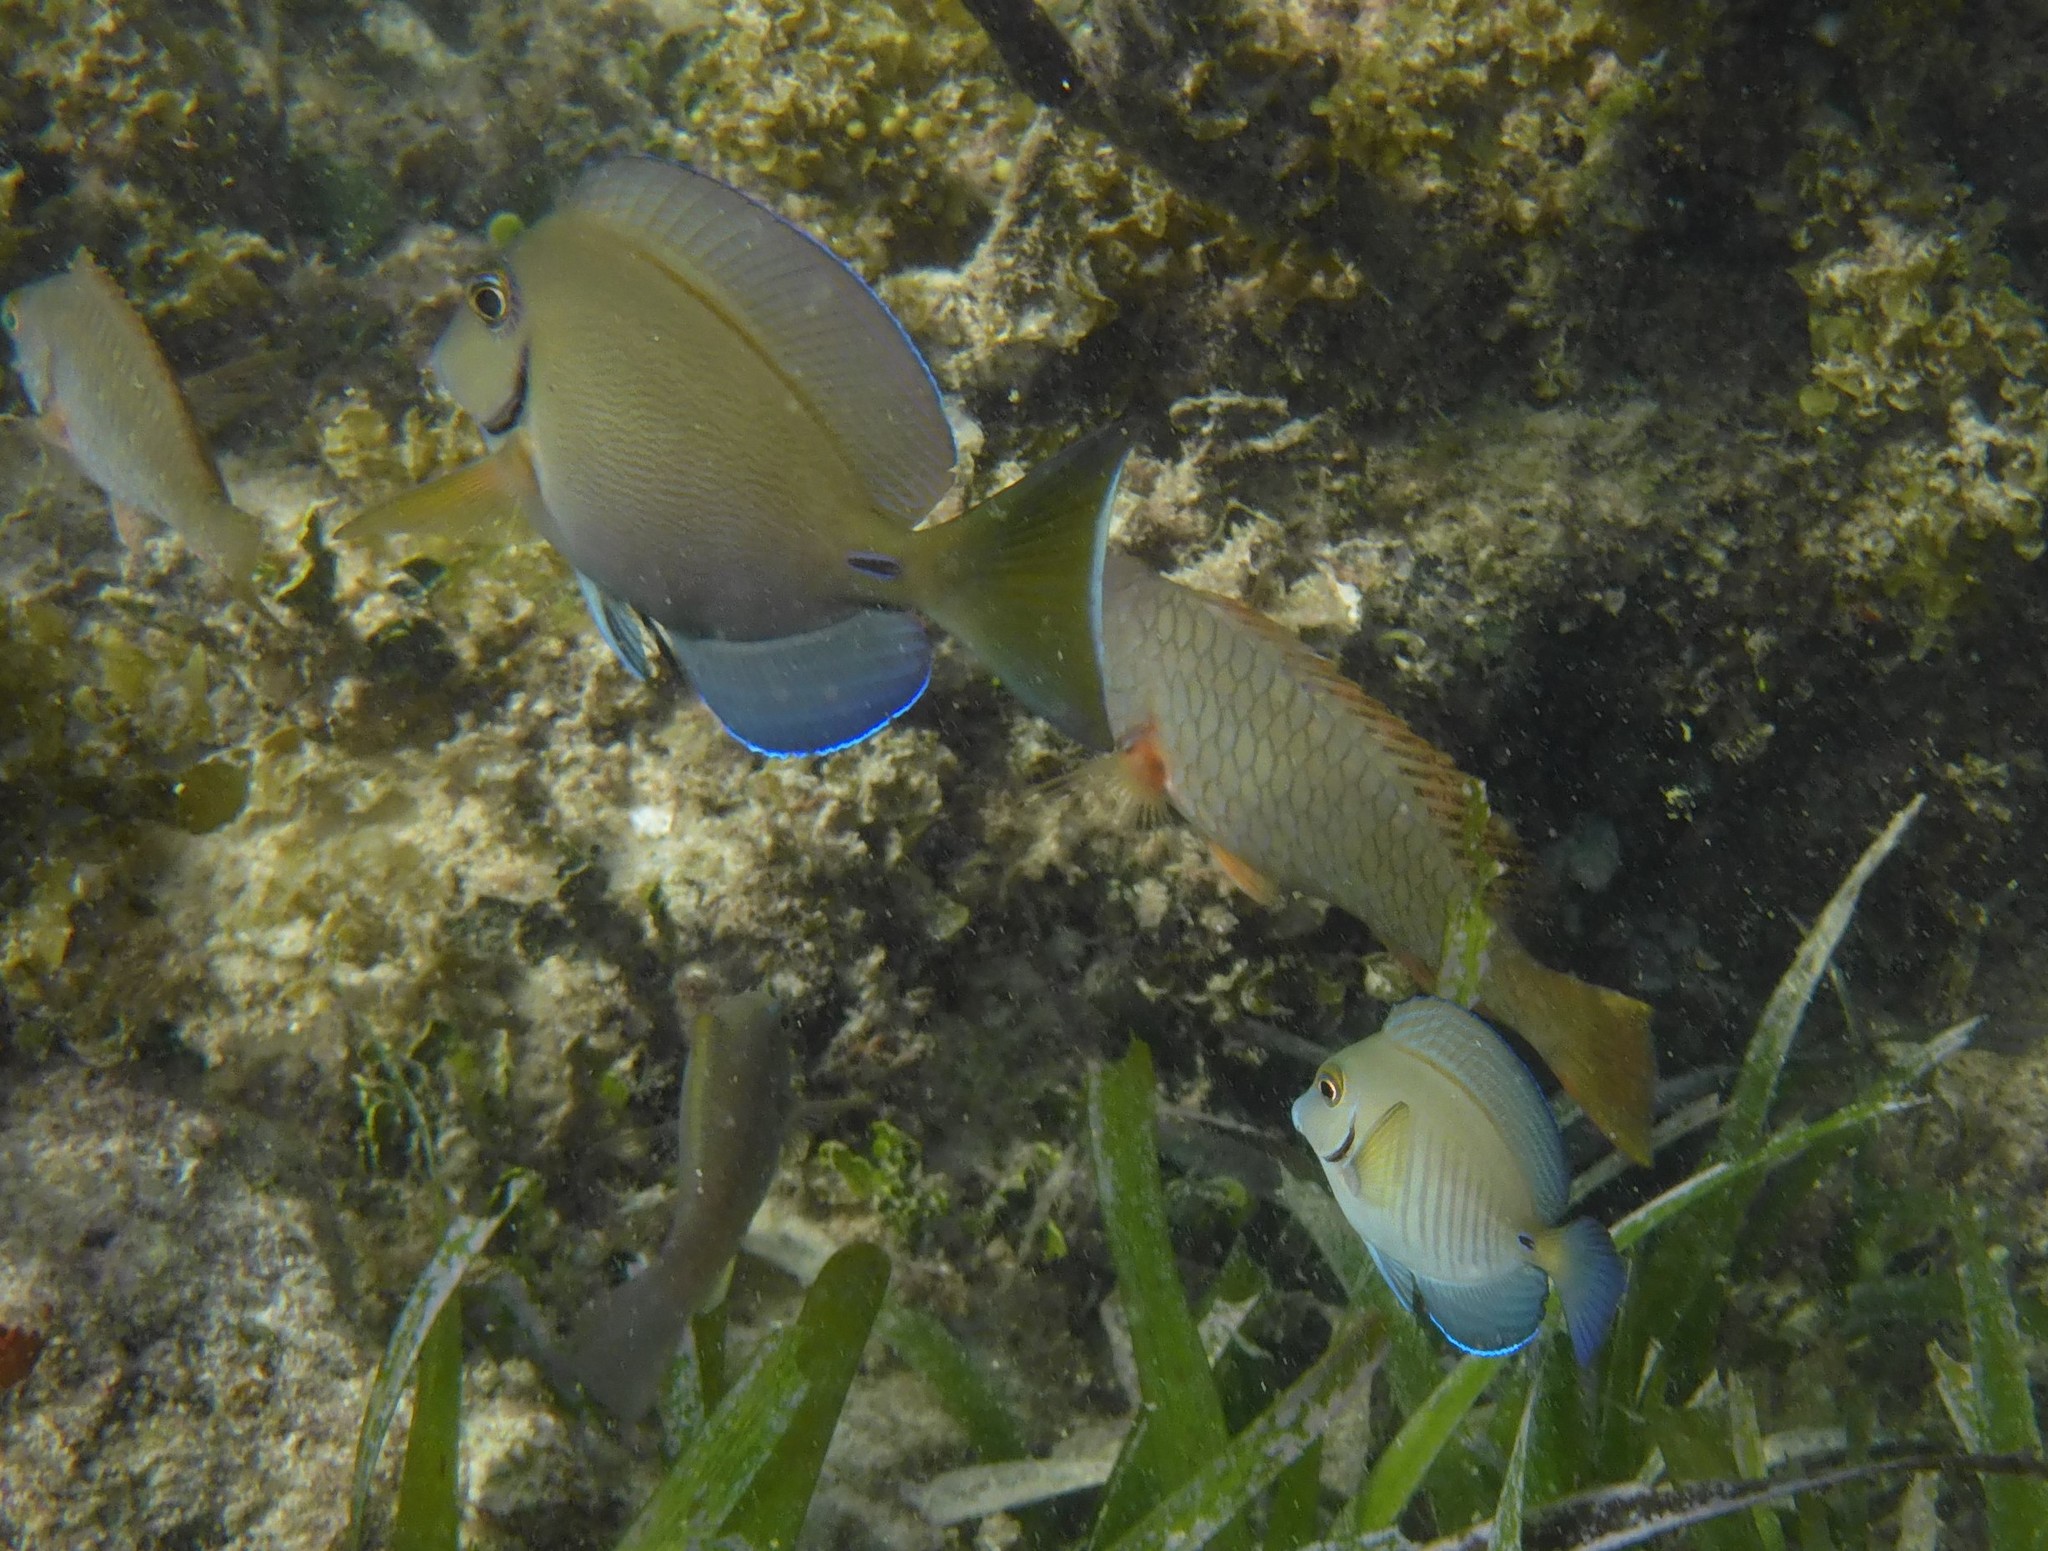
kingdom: Animalia
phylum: Chordata
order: Perciformes
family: Acanthuridae
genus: Acanthurus
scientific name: Acanthurus bahianus
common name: Ocean surgeon
